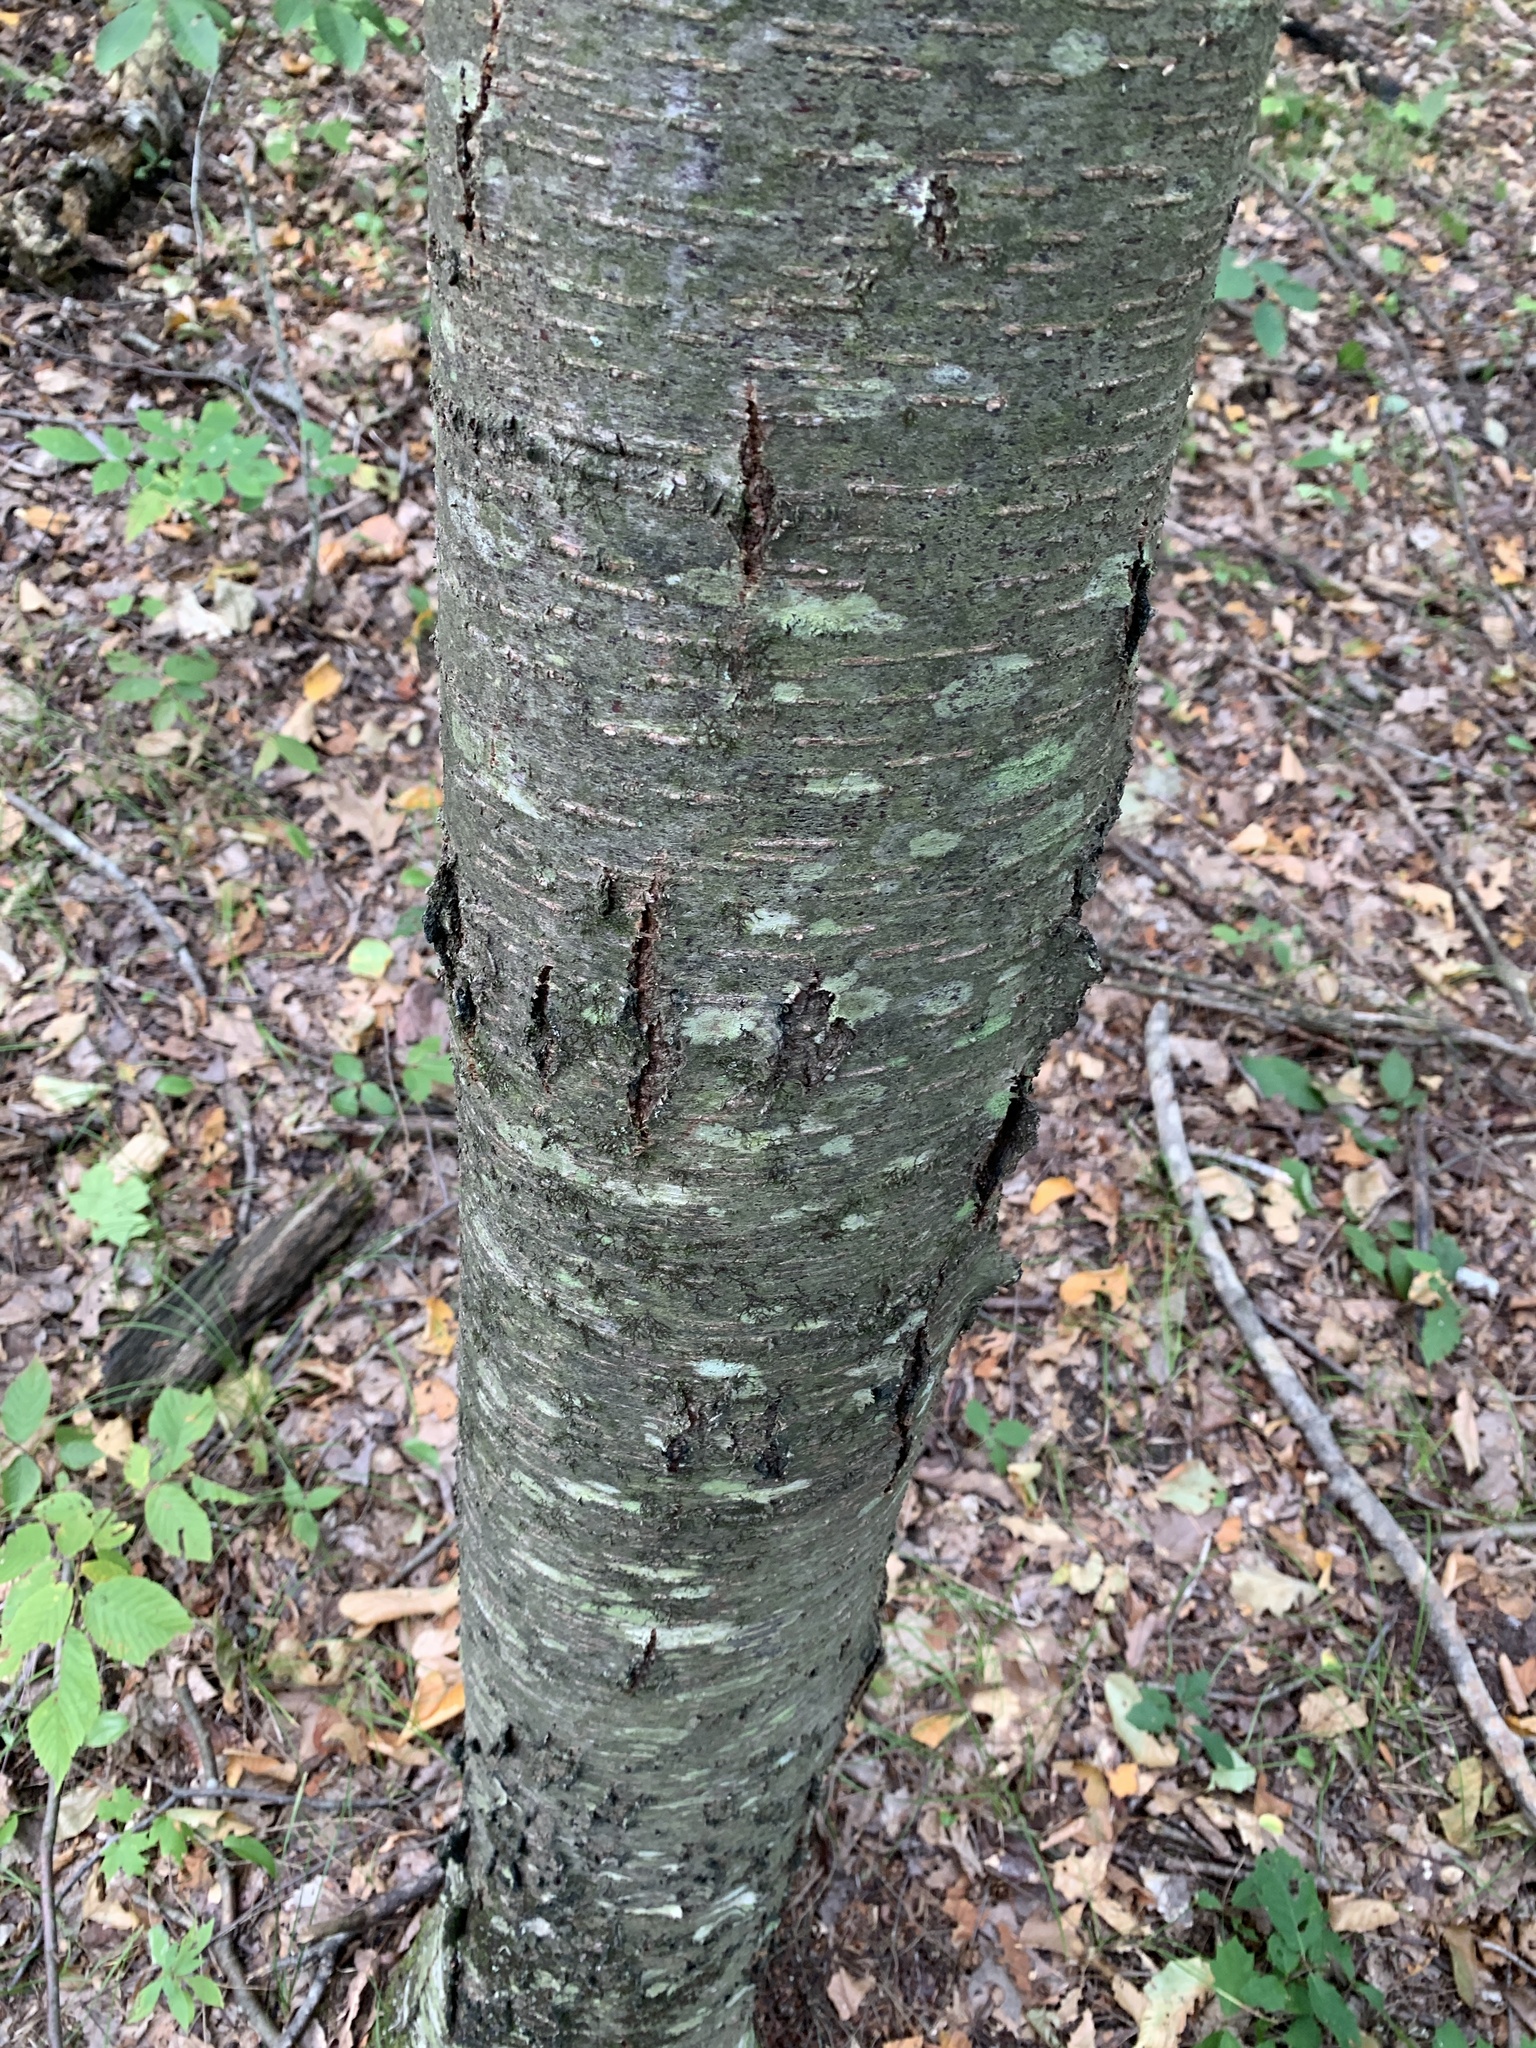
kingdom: Plantae
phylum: Tracheophyta
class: Magnoliopsida
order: Fagales
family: Betulaceae
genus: Betula
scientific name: Betula lenta
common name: Black birch
